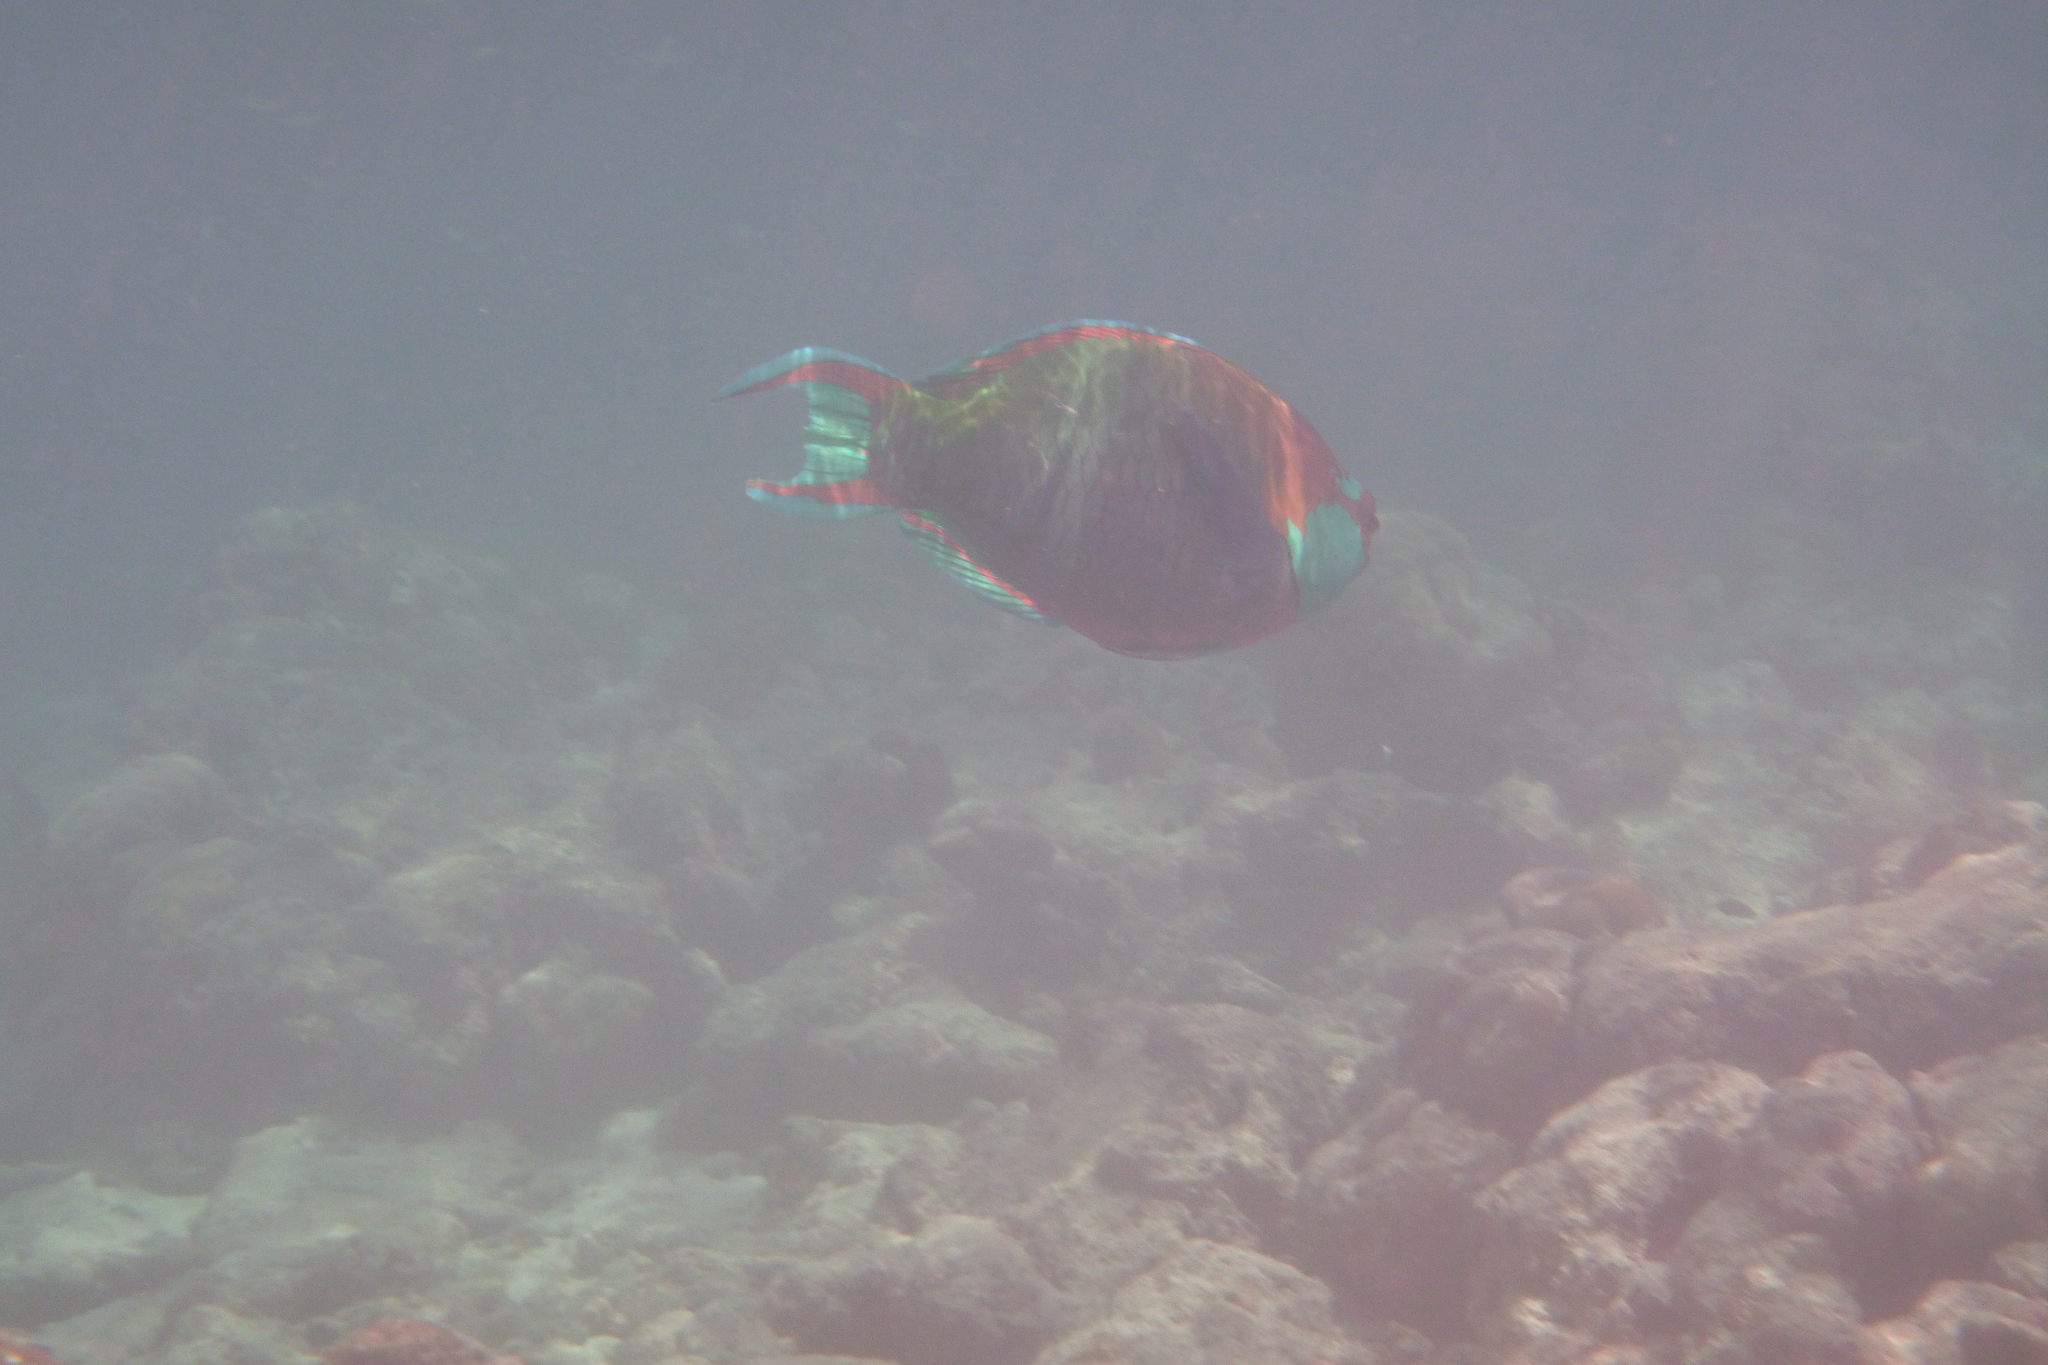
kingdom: Animalia
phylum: Chordata
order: Perciformes
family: Scaridae
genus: Scarus
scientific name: Scarus prasiognathos
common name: Singapore parrotfish
